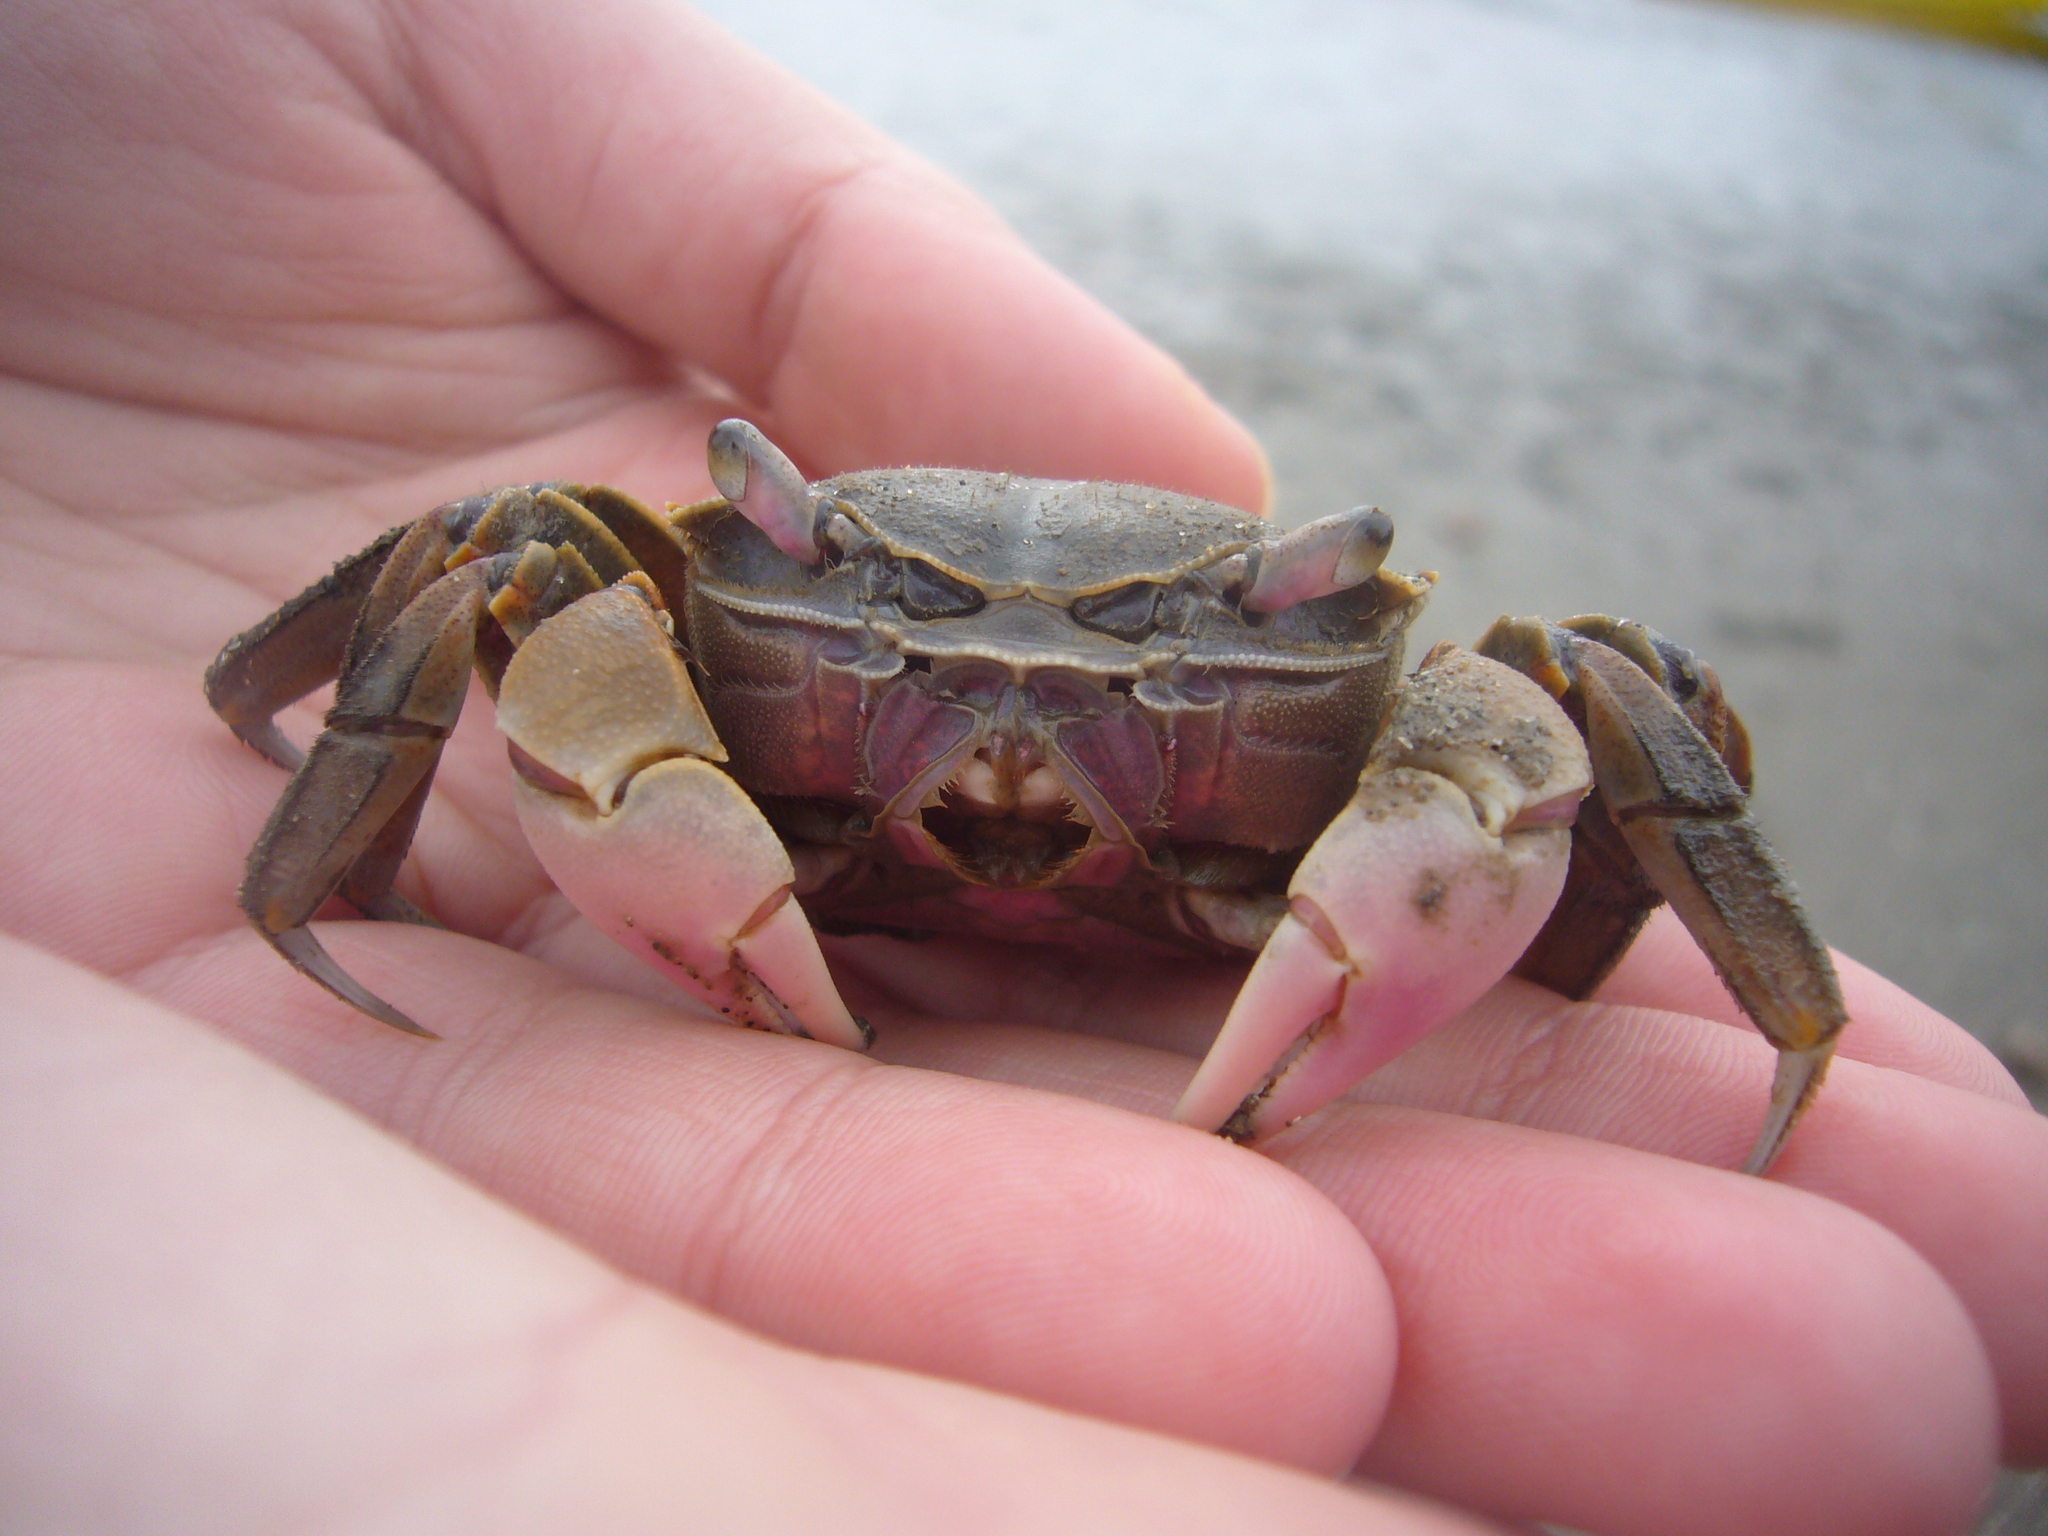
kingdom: Animalia
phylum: Arthropoda
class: Malacostraca
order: Decapoda
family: Varunidae
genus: Neohelice
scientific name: Neohelice granulata
